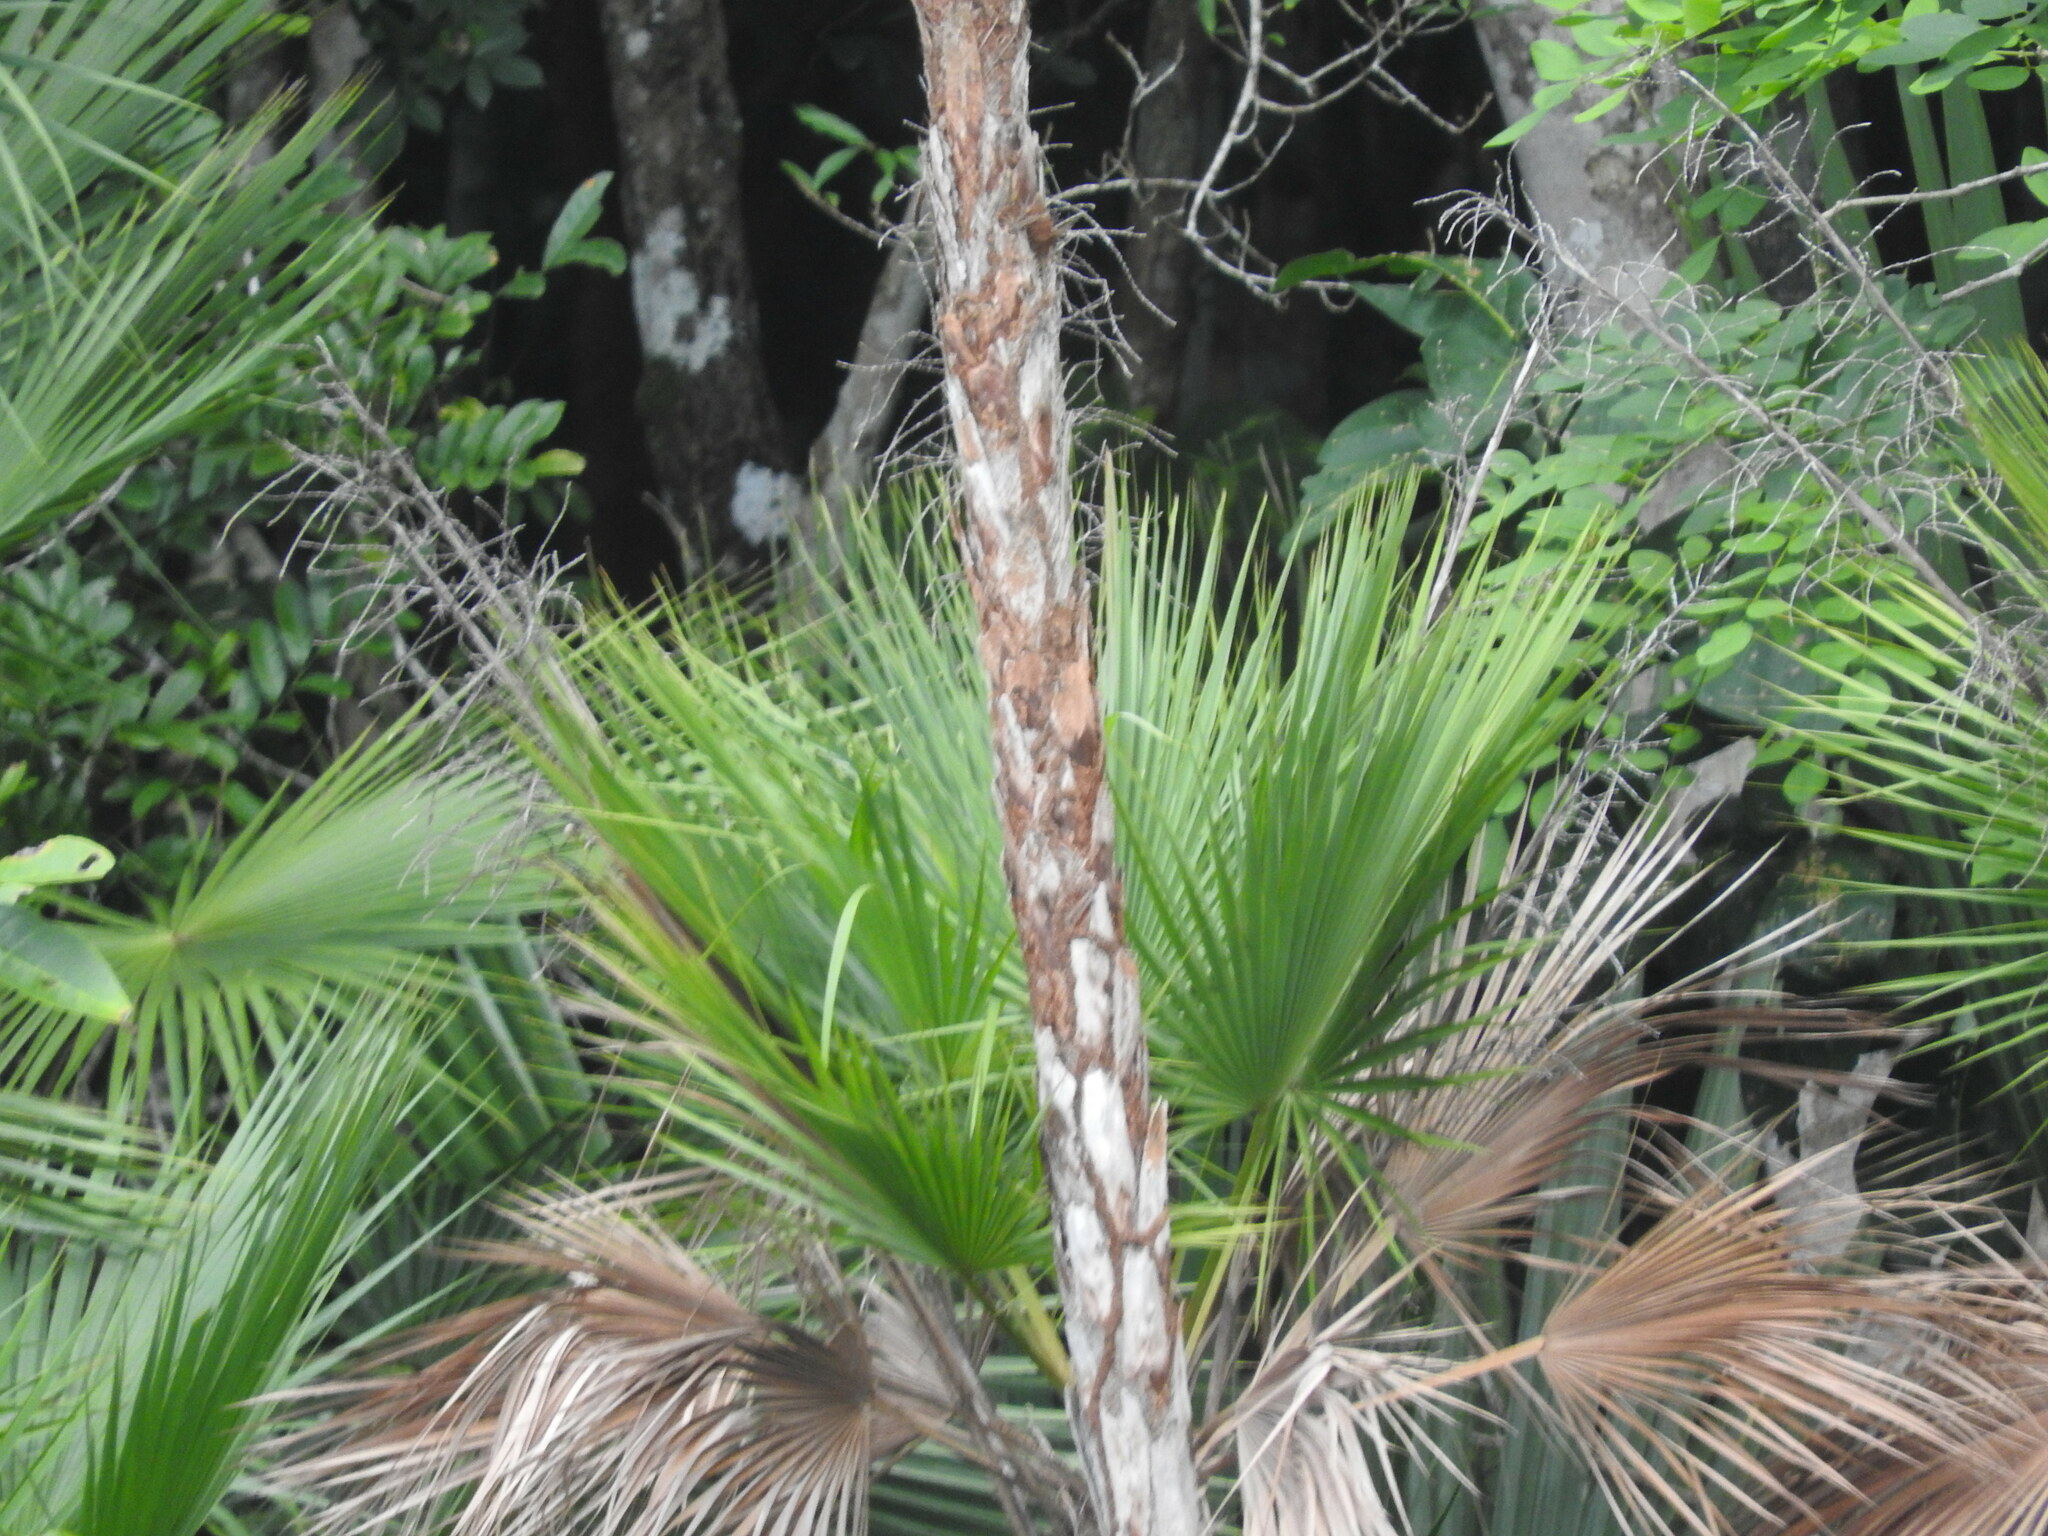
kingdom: Plantae
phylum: Tracheophyta
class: Liliopsida
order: Arecales
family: Arecaceae
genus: Acoelorraphe
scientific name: Acoelorraphe wrightii
